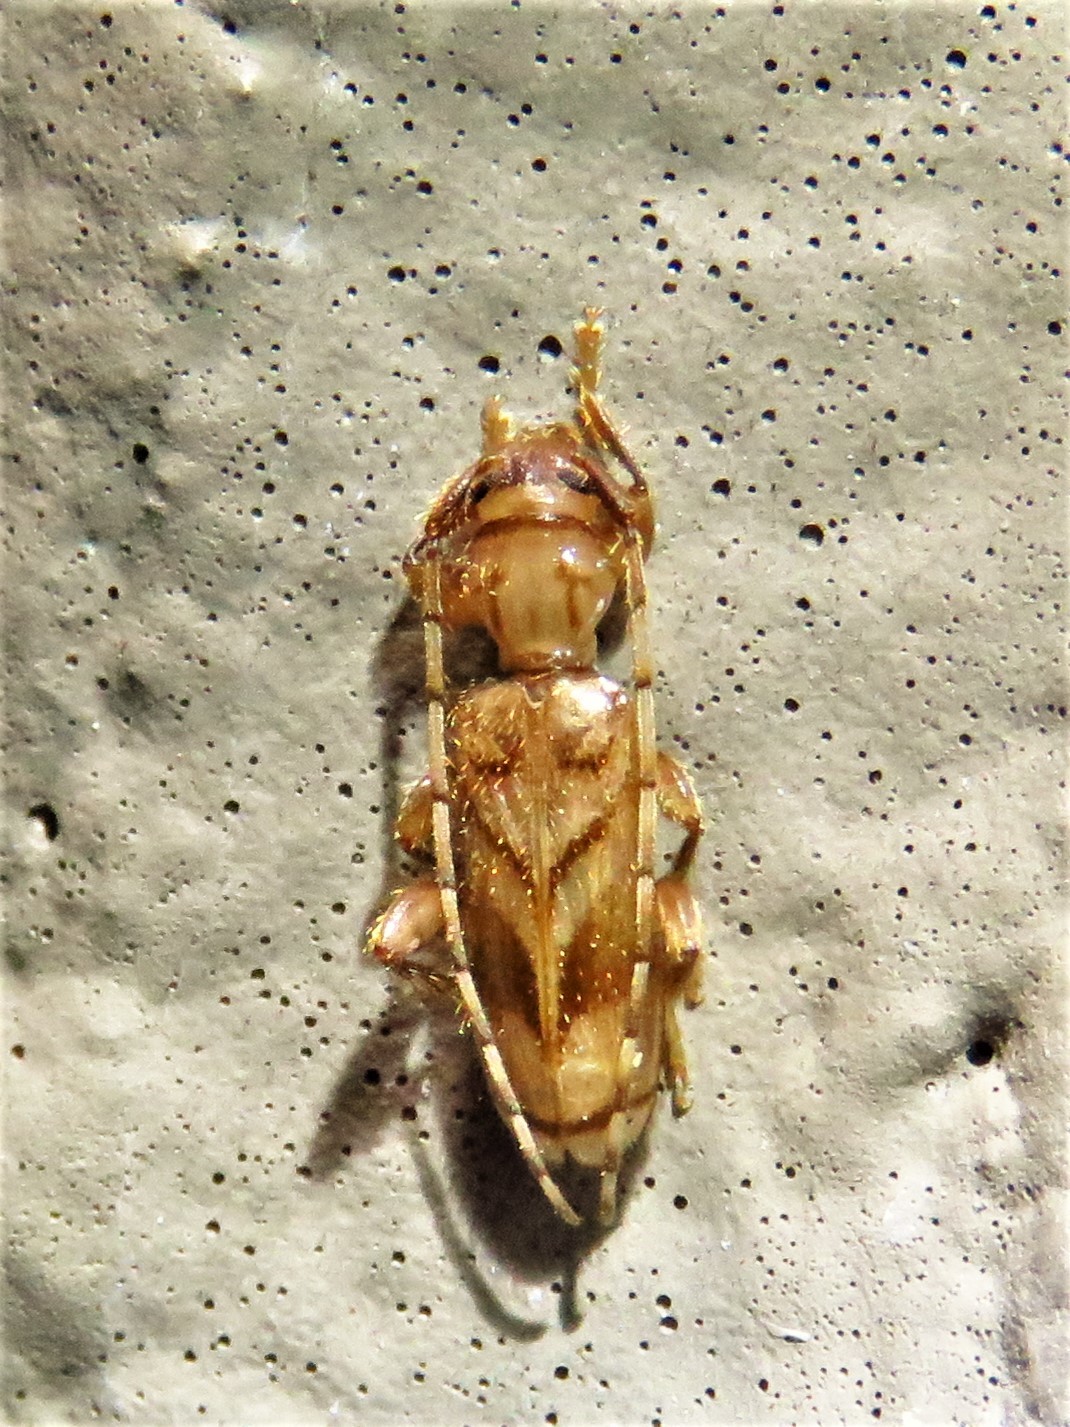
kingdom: Animalia
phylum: Arthropoda
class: Insecta
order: Coleoptera
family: Cerambycidae
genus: Obrium
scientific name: Obrium maculatum
